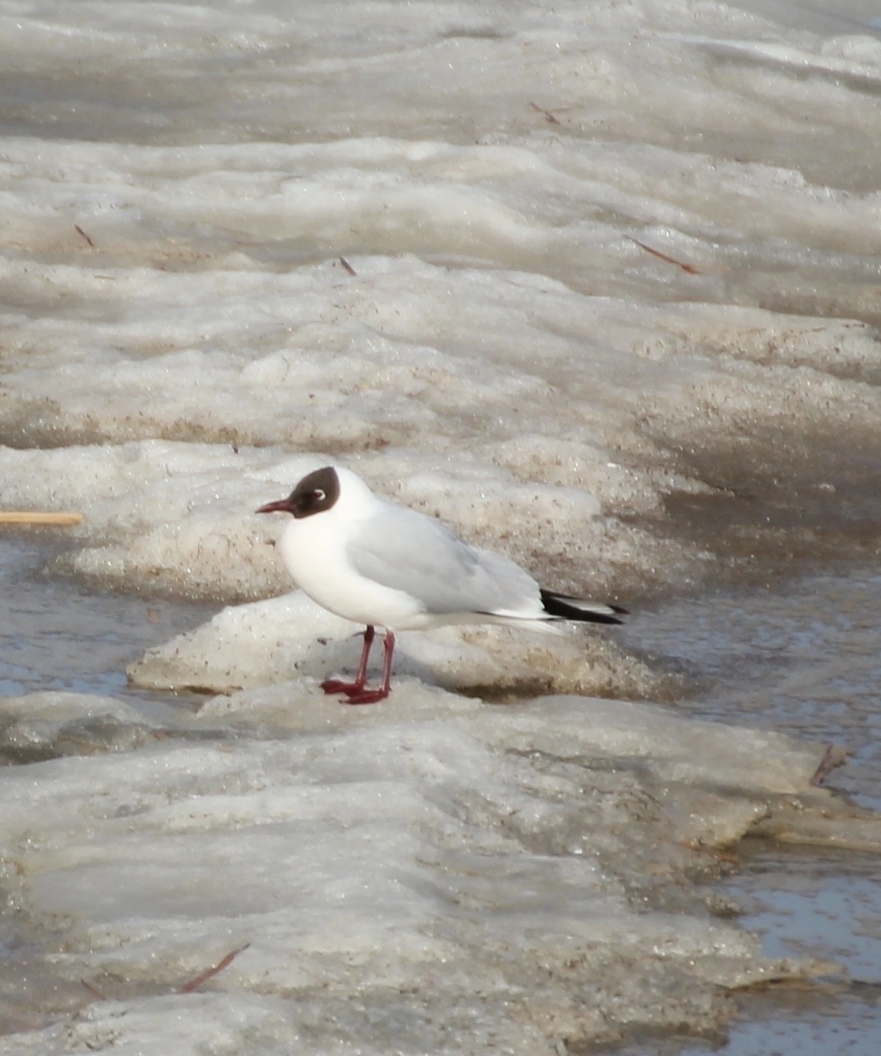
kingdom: Animalia
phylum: Chordata
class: Aves
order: Charadriiformes
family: Laridae
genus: Chroicocephalus
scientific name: Chroicocephalus ridibundus
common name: Black-headed gull
